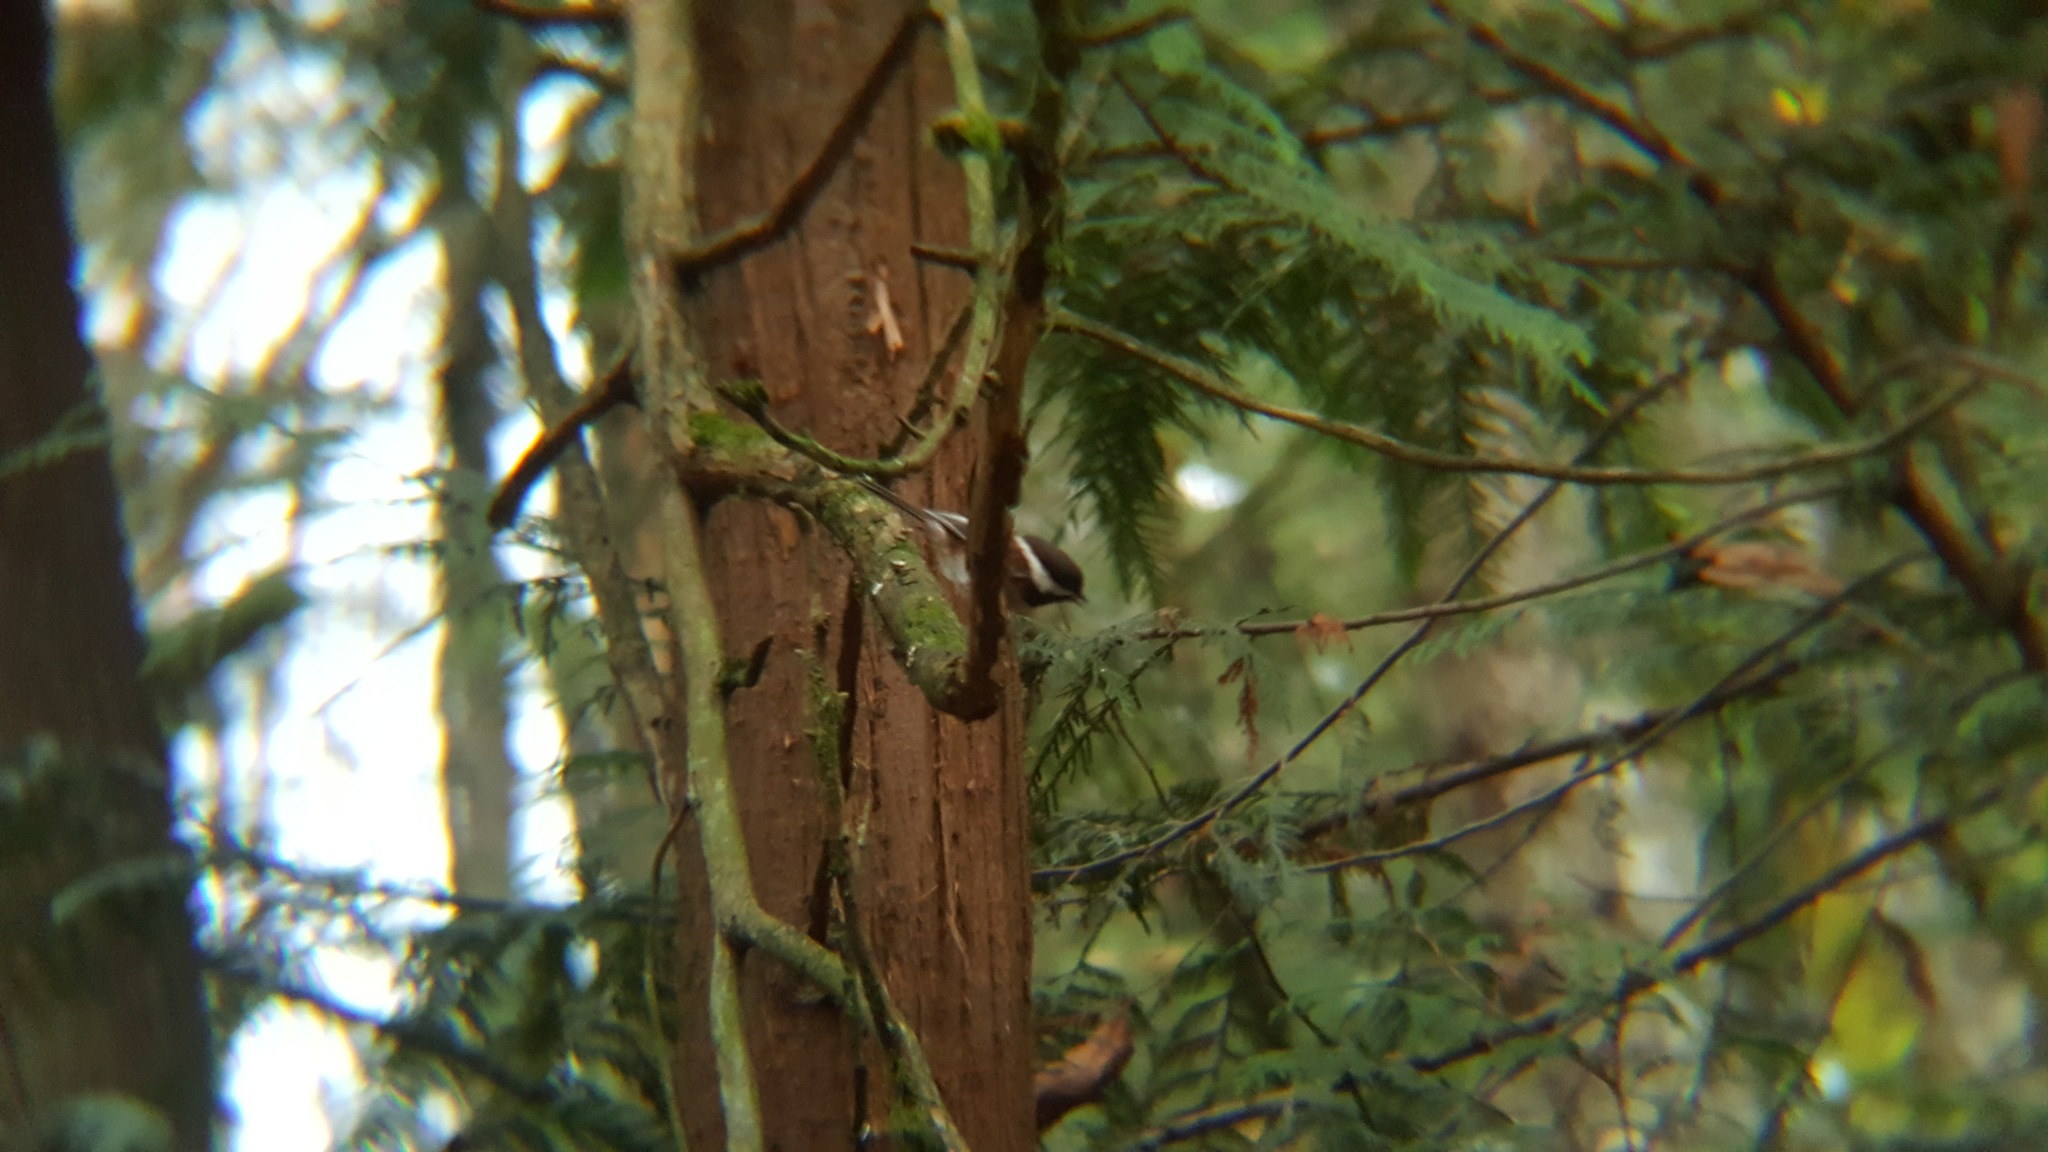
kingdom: Animalia
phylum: Chordata
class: Aves
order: Passeriformes
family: Paridae
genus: Poecile
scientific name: Poecile rufescens
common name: Chestnut-backed chickadee
